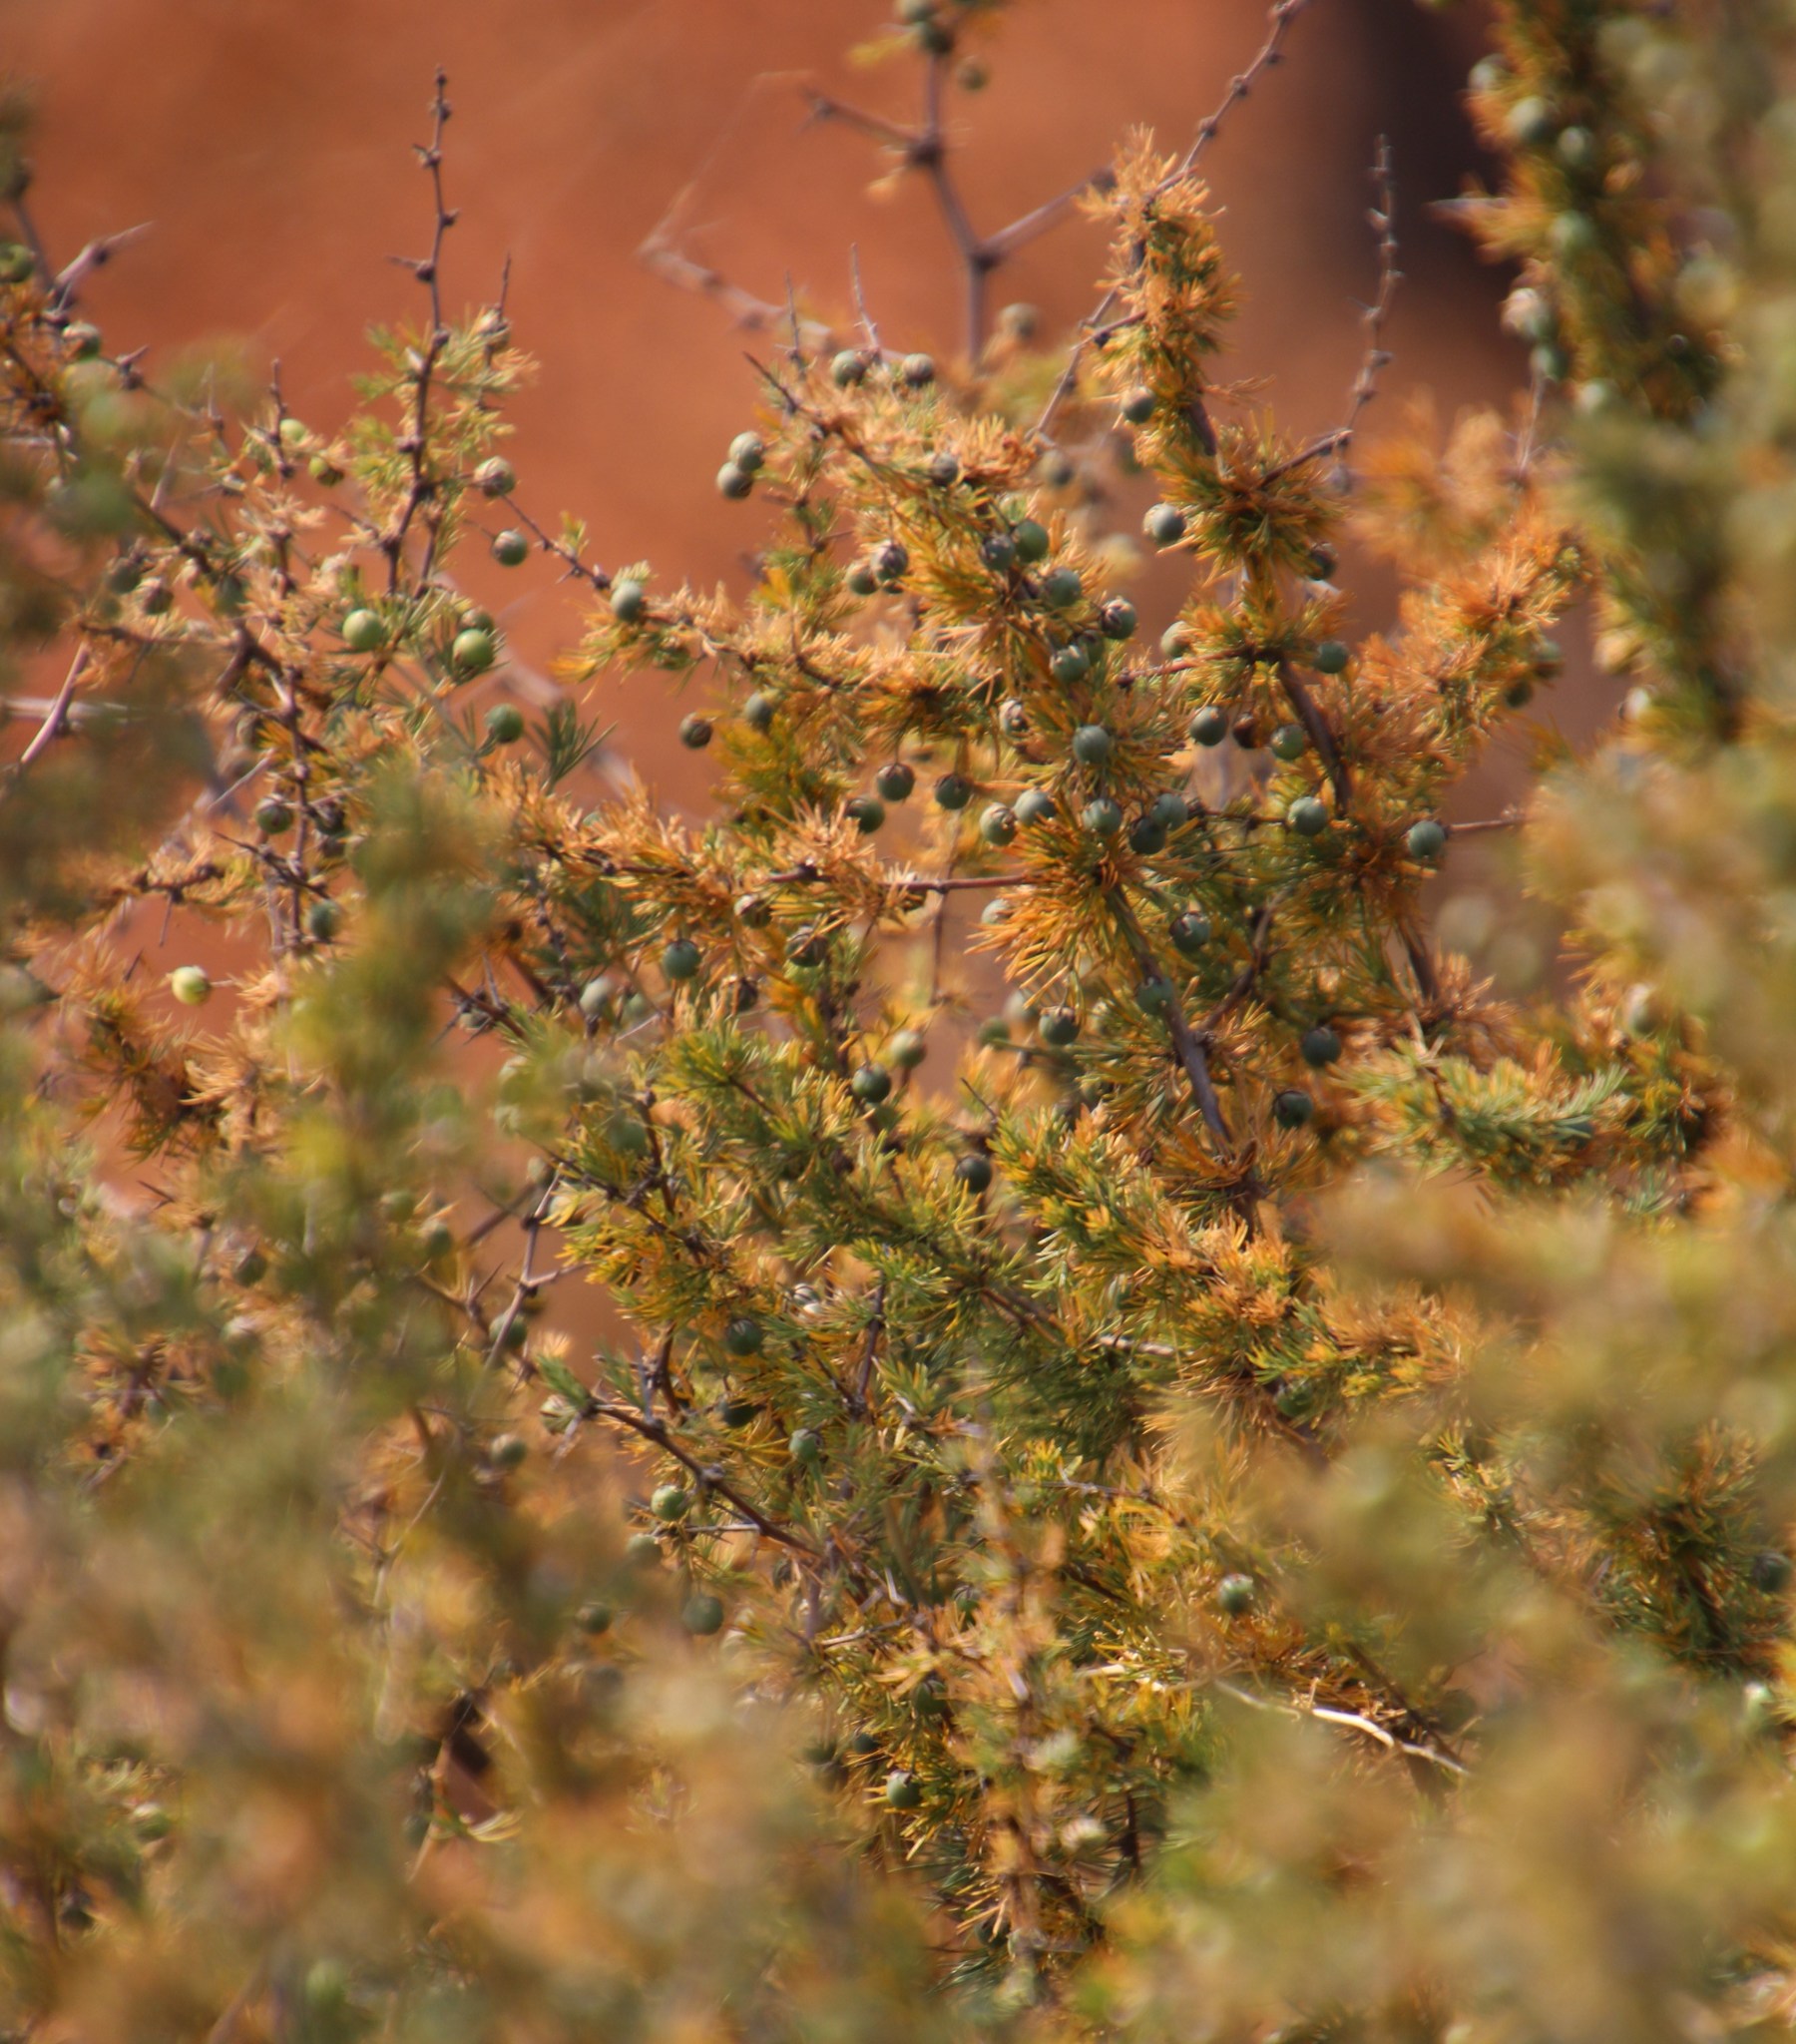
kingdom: Plantae
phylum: Tracheophyta
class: Liliopsida
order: Asparagales
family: Asparagaceae
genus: Asparagus
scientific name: Asparagus suaveolens
